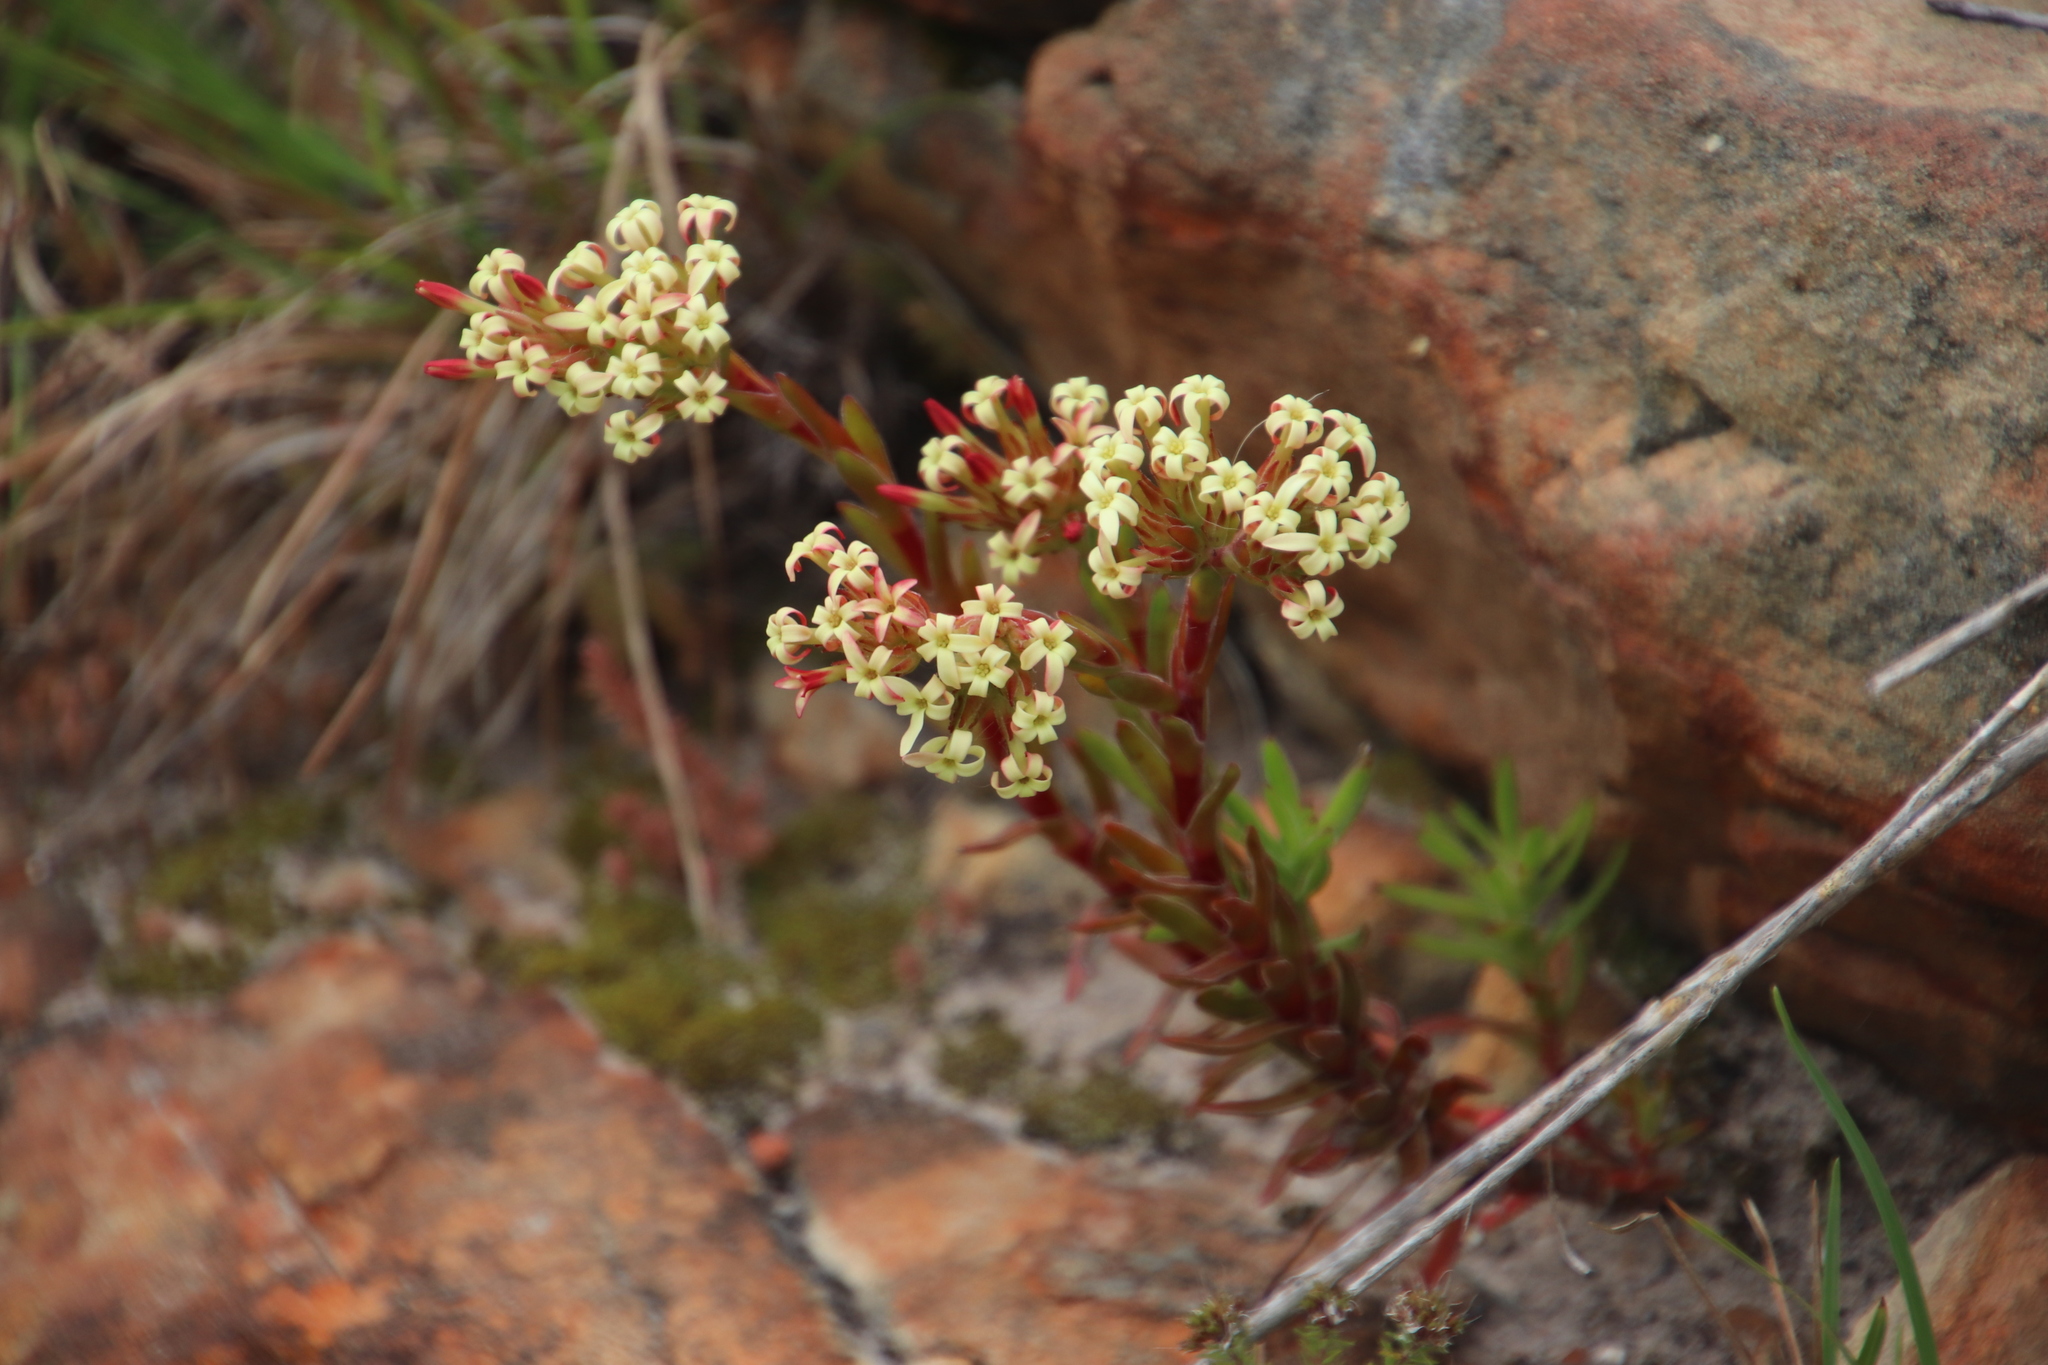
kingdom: Plantae
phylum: Tracheophyta
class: Magnoliopsida
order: Saxifragales
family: Crassulaceae
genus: Crassula
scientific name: Crassula fascicularis
